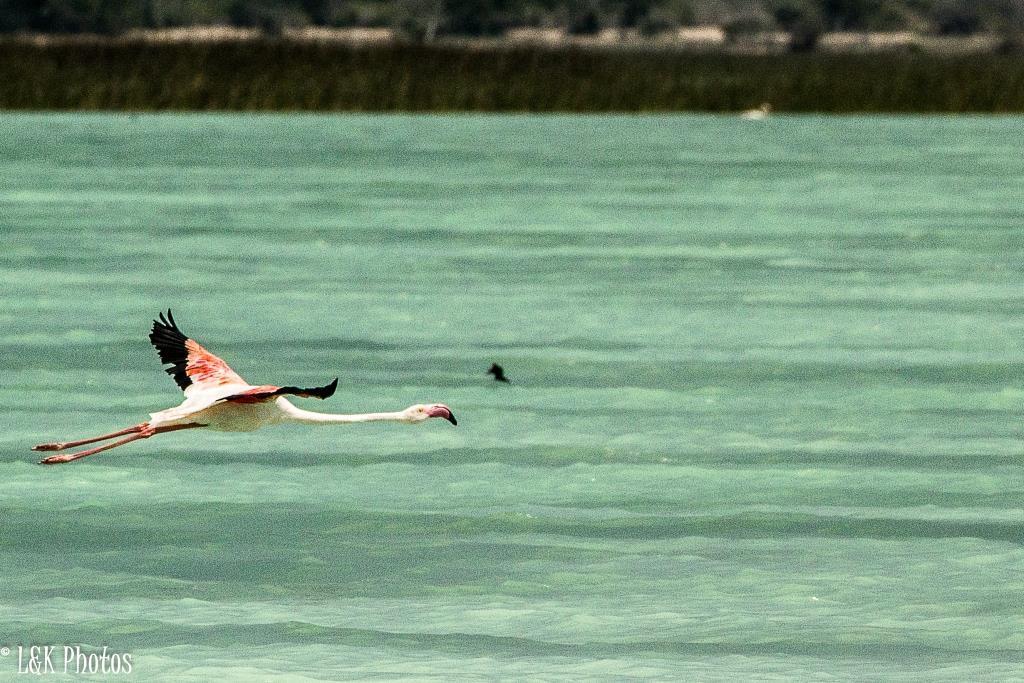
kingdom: Animalia
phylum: Chordata
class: Aves
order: Phoenicopteriformes
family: Phoenicopteridae
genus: Phoenicopterus
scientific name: Phoenicopterus roseus
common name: Greater flamingo
